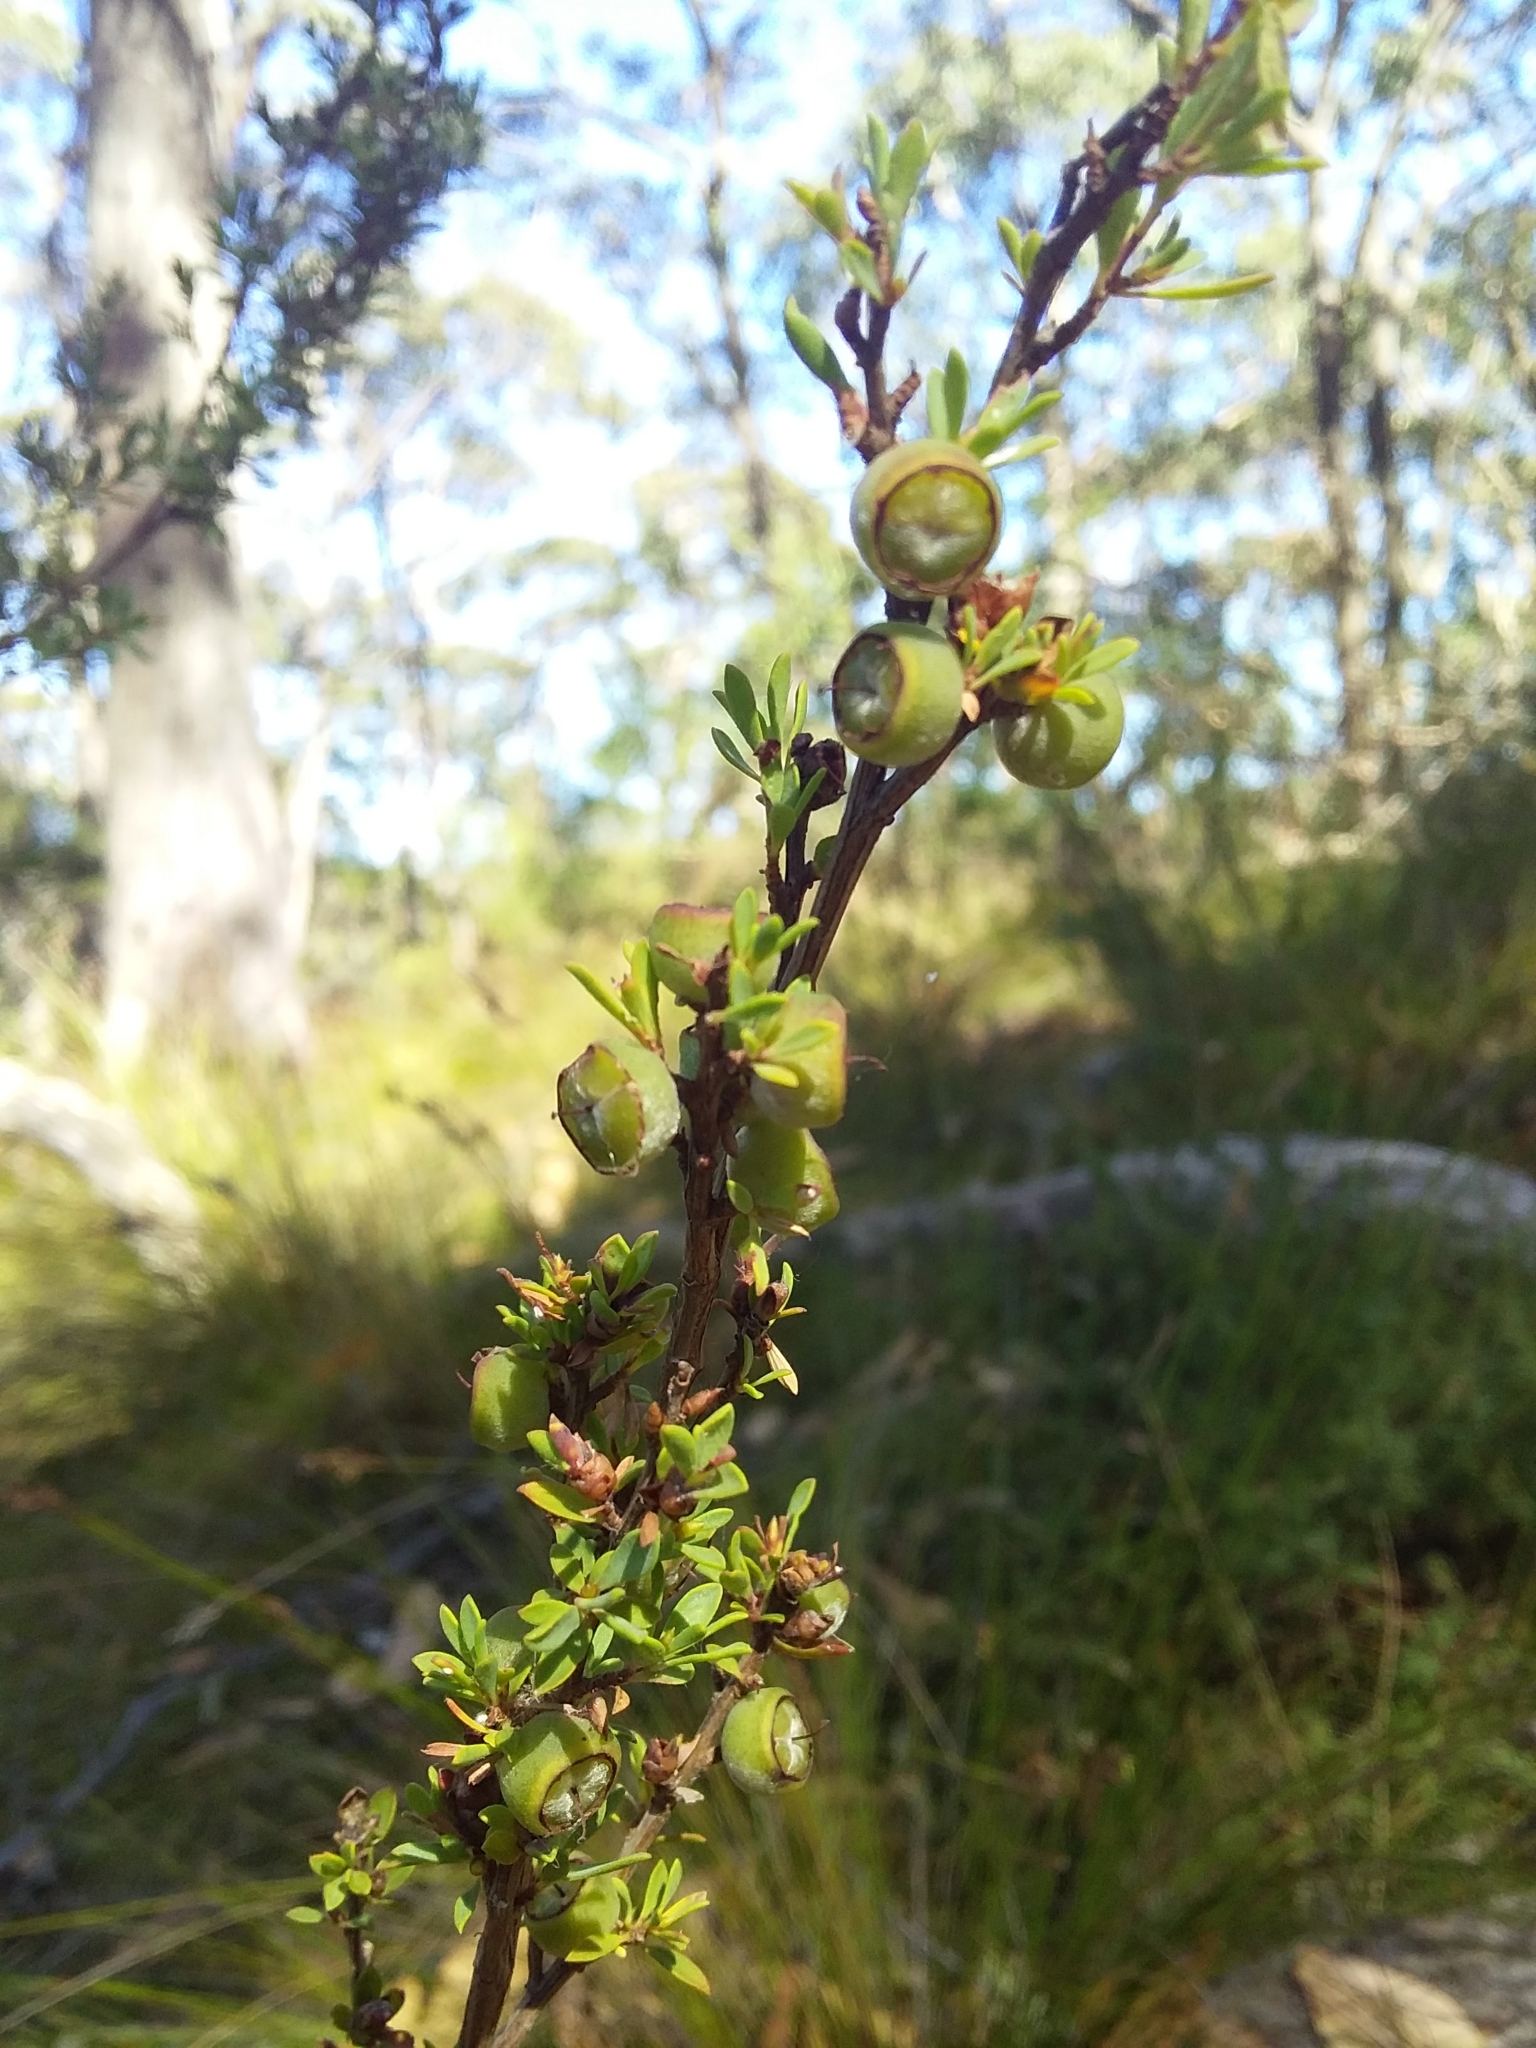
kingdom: Plantae
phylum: Tracheophyta
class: Magnoliopsida
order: Myrtales
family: Myrtaceae
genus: Leptospermum
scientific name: Leptospermum myrsinoides
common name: Heath teatree
